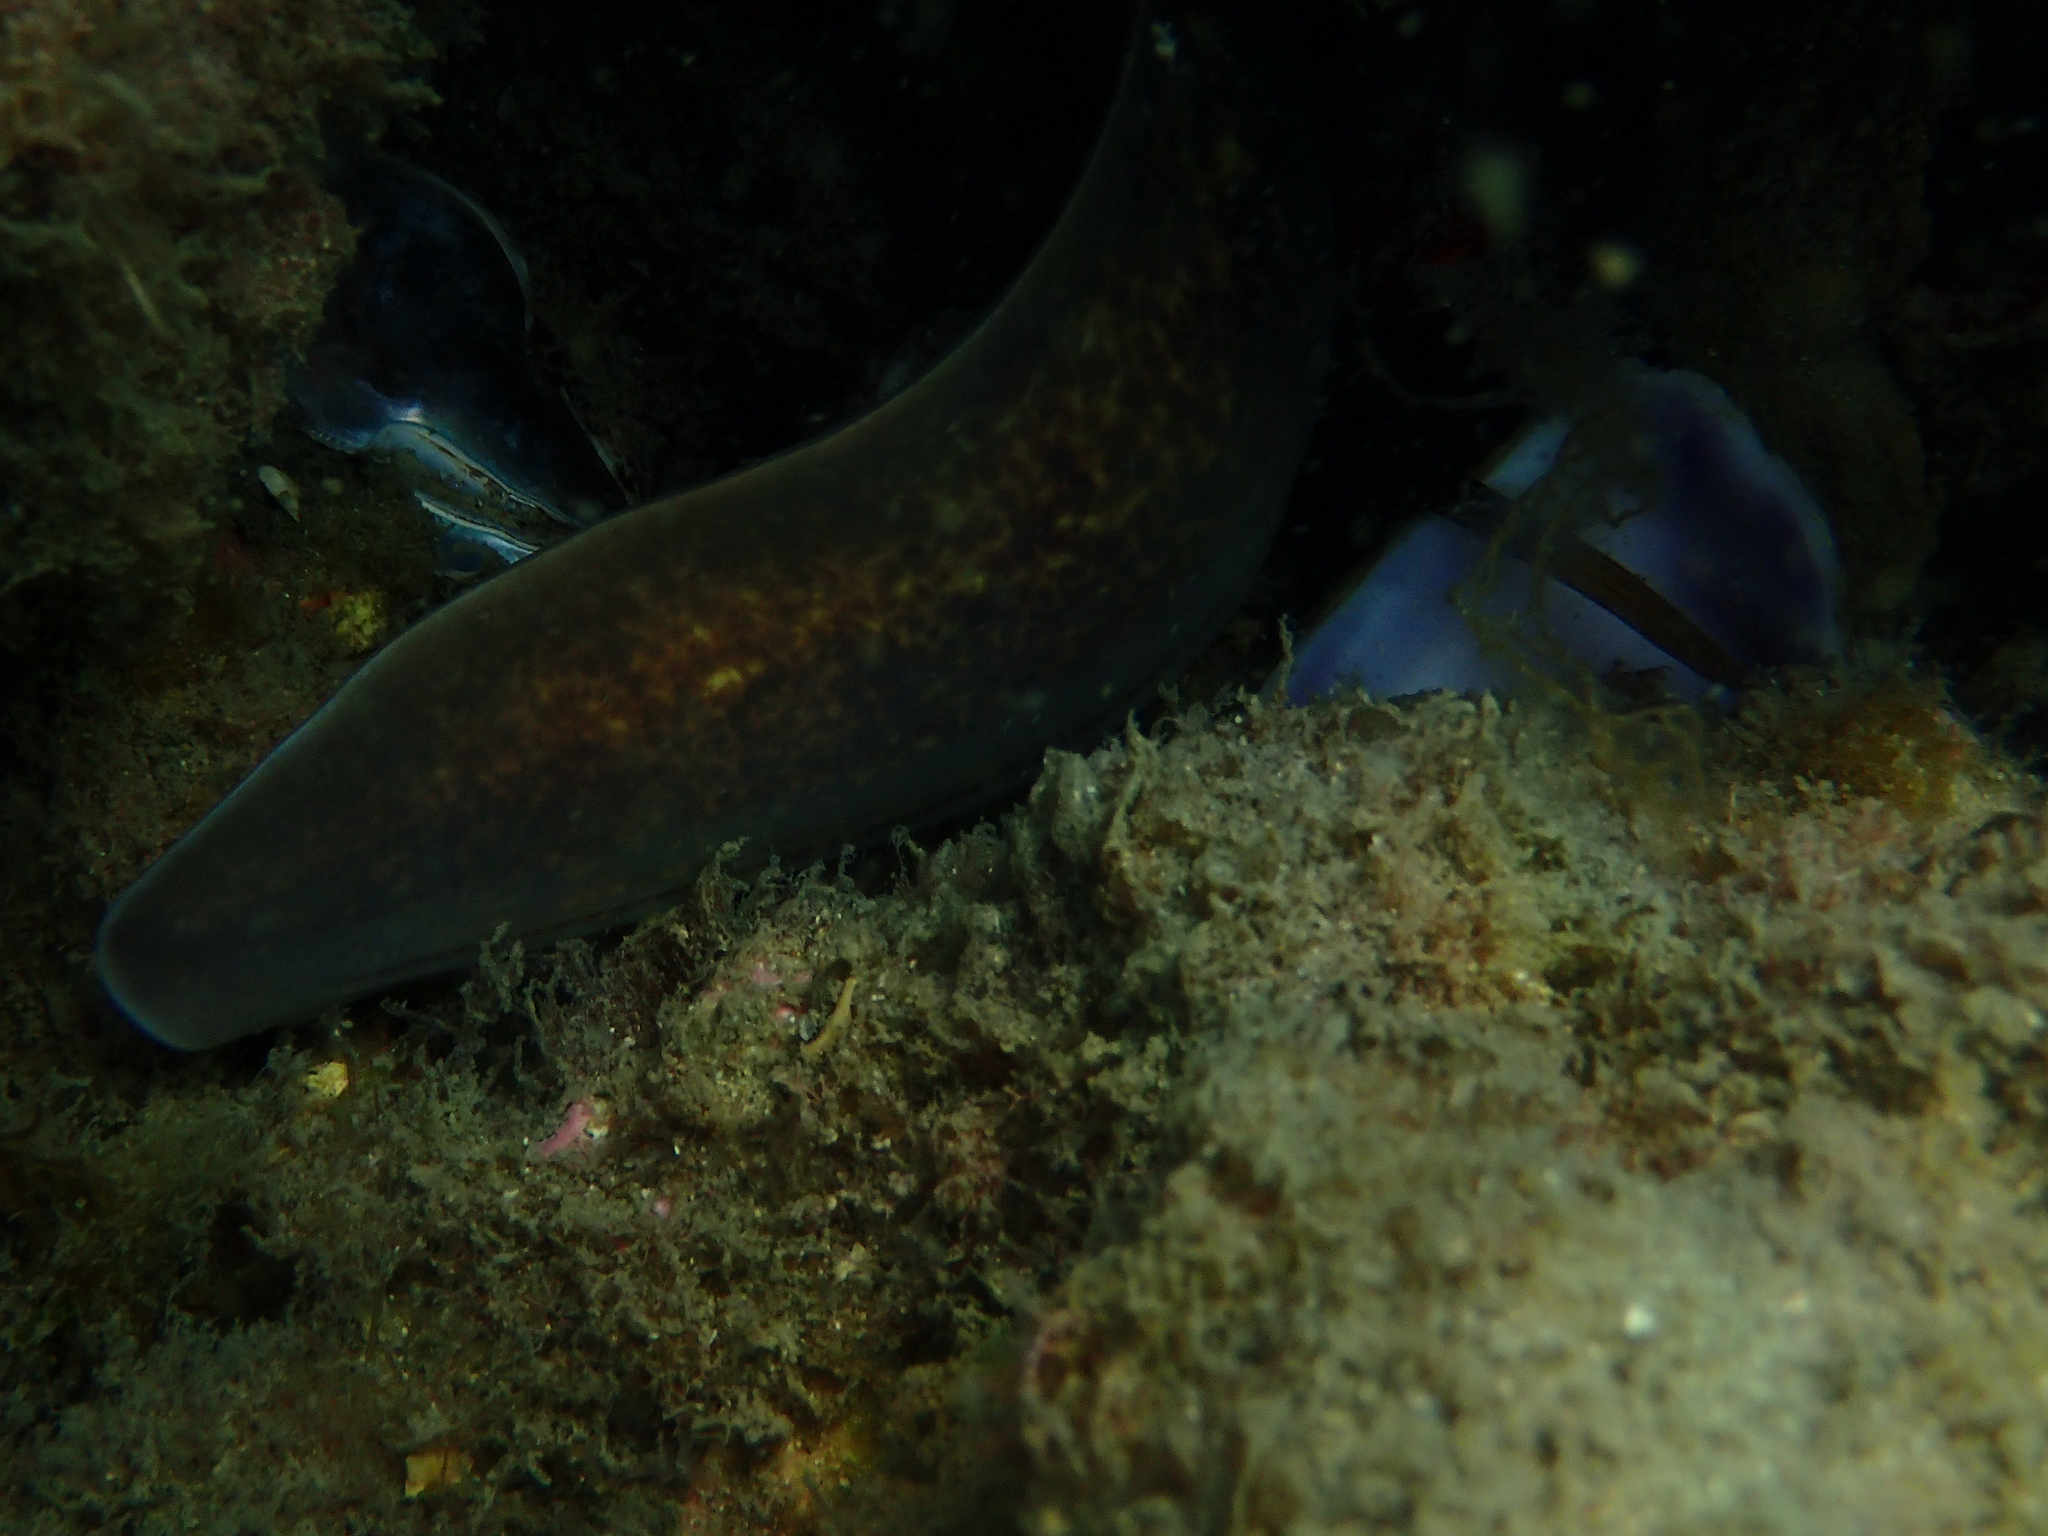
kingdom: Animalia
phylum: Chordata
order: Anguilliformes
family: Muraenidae
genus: Gymnothorax
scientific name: Gymnothorax thyrsoideus
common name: Greyface moray
